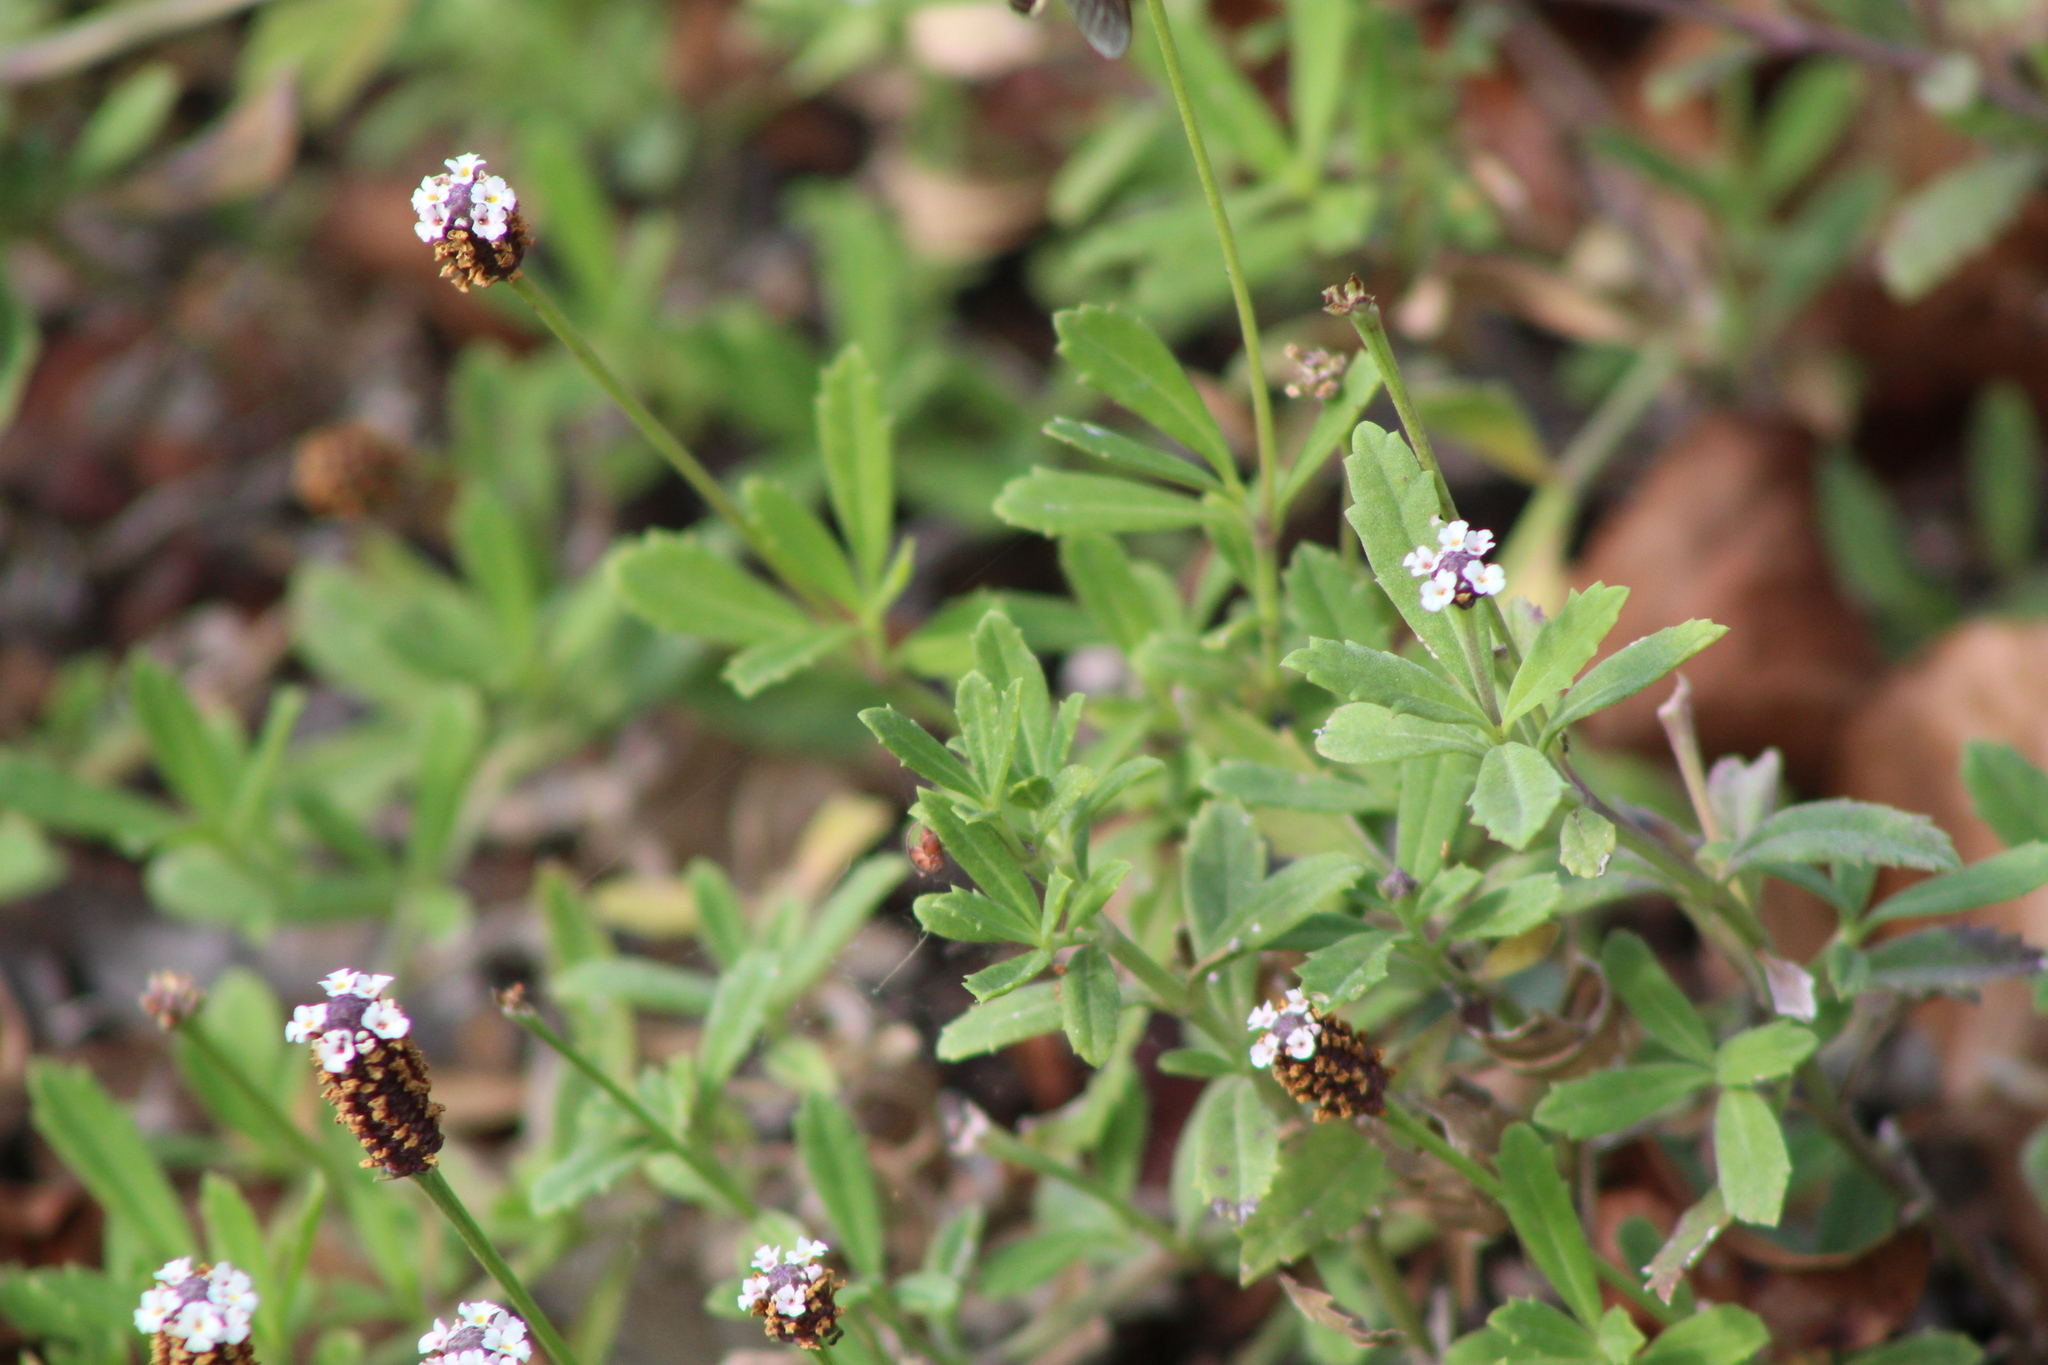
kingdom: Plantae
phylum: Tracheophyta
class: Magnoliopsida
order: Lamiales
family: Verbenaceae
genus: Phyla
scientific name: Phyla nodiflora
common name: Frogfruit
